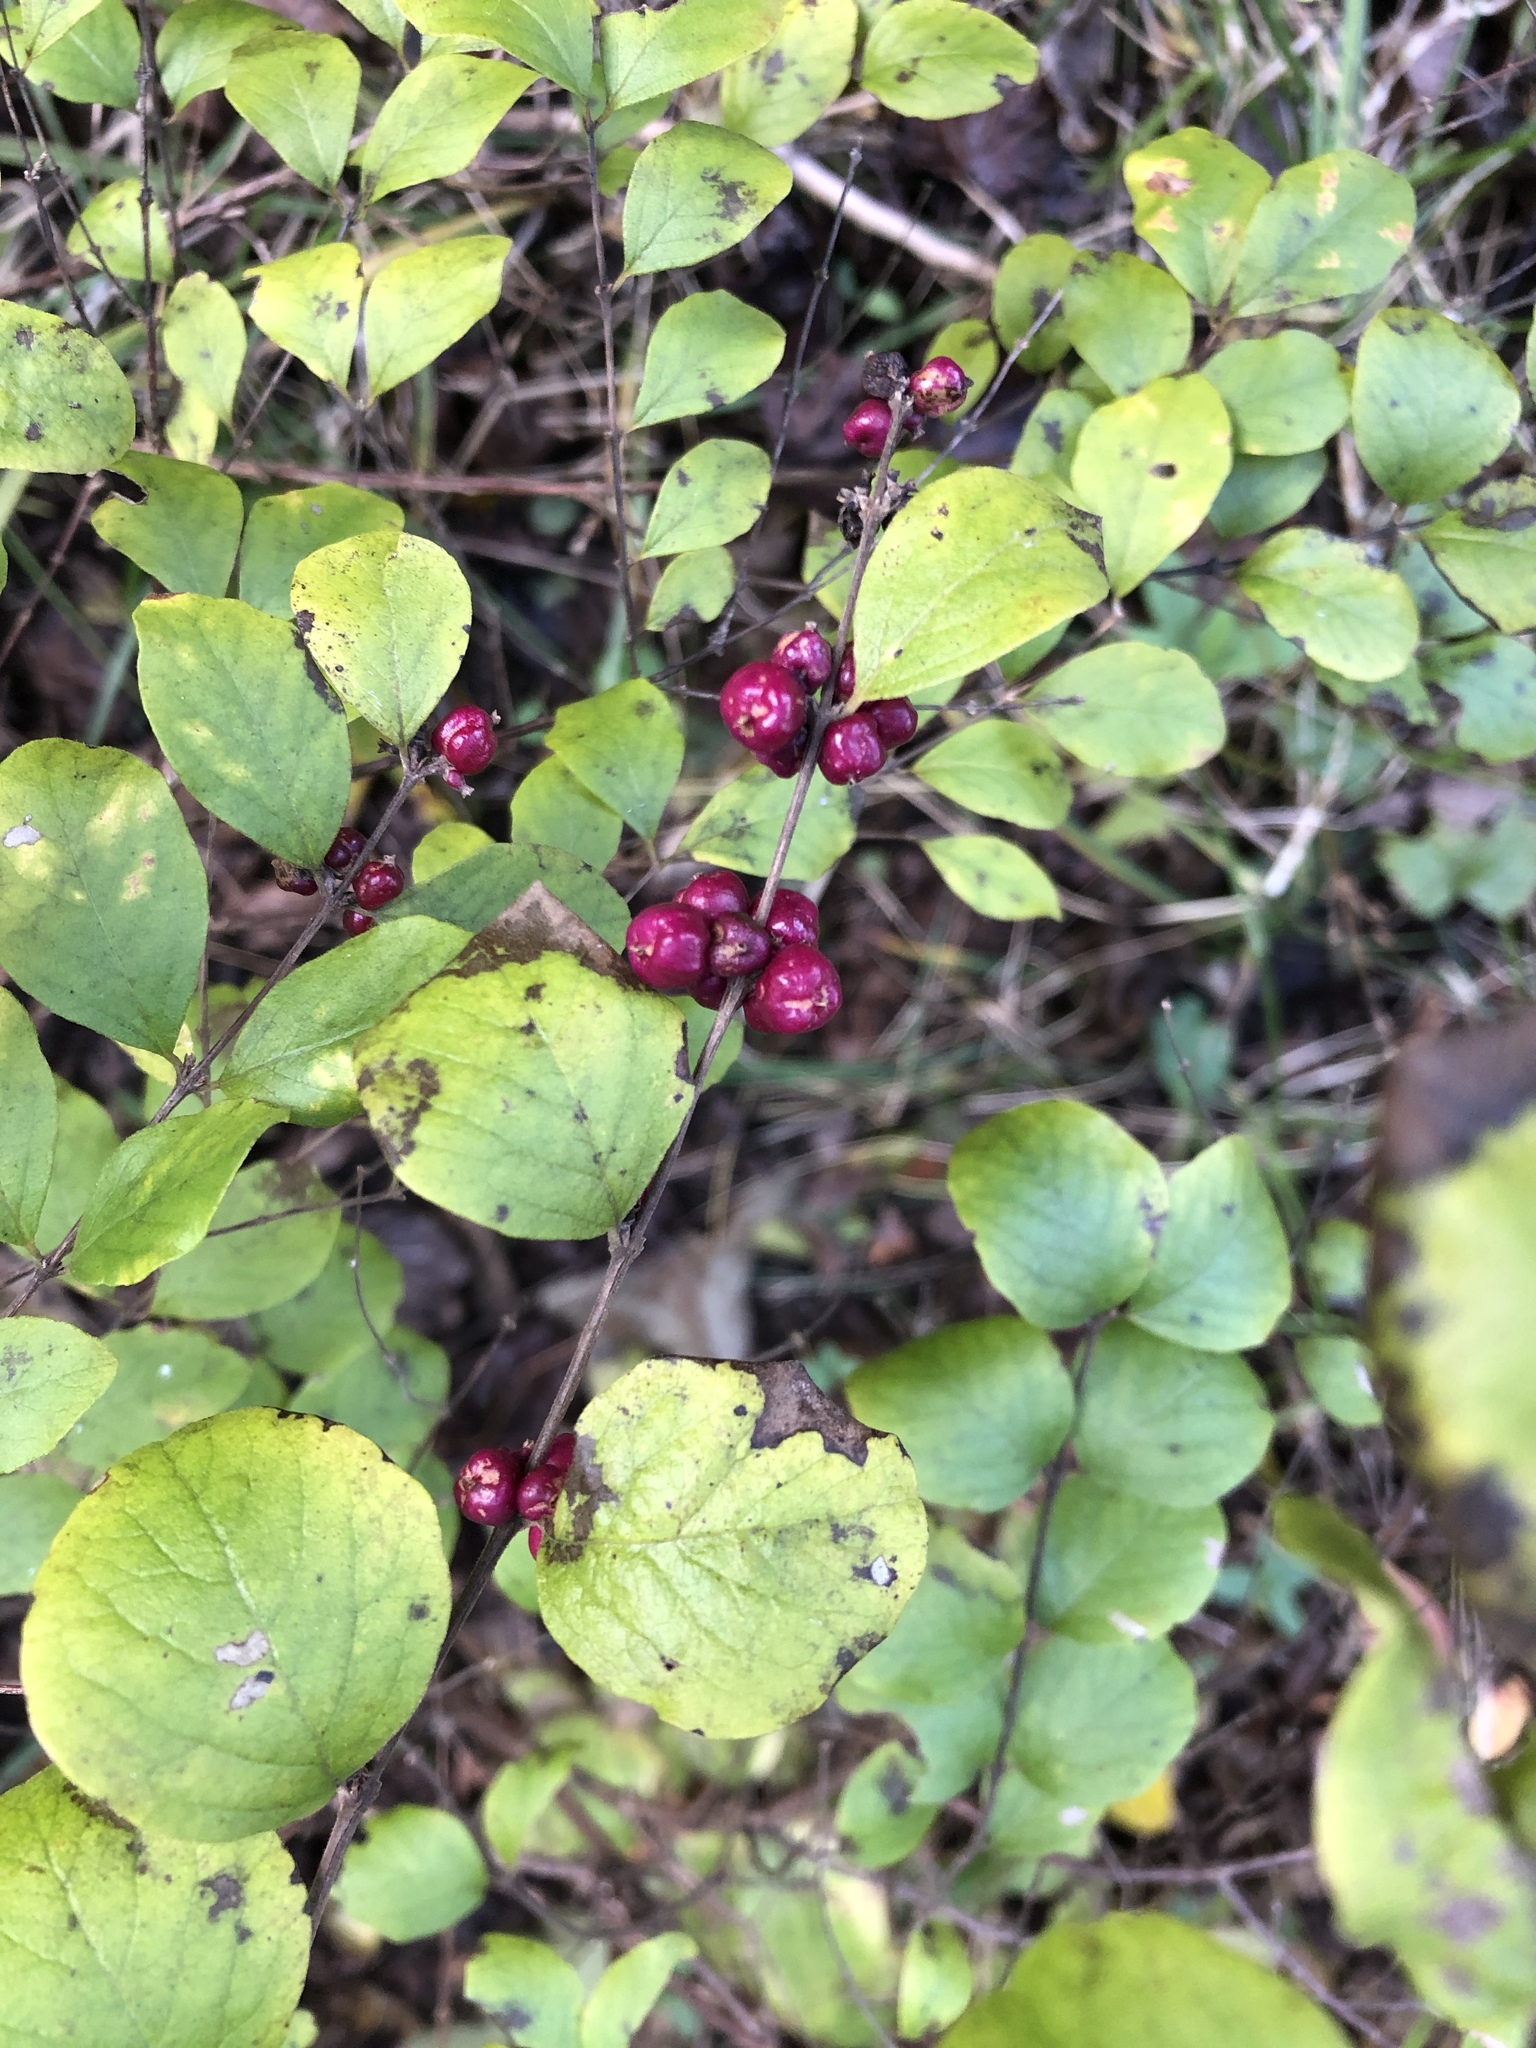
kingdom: Plantae
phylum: Tracheophyta
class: Magnoliopsida
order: Dipsacales
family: Caprifoliaceae
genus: Symphoricarpos
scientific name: Symphoricarpos orbiculatus
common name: Coralberry
